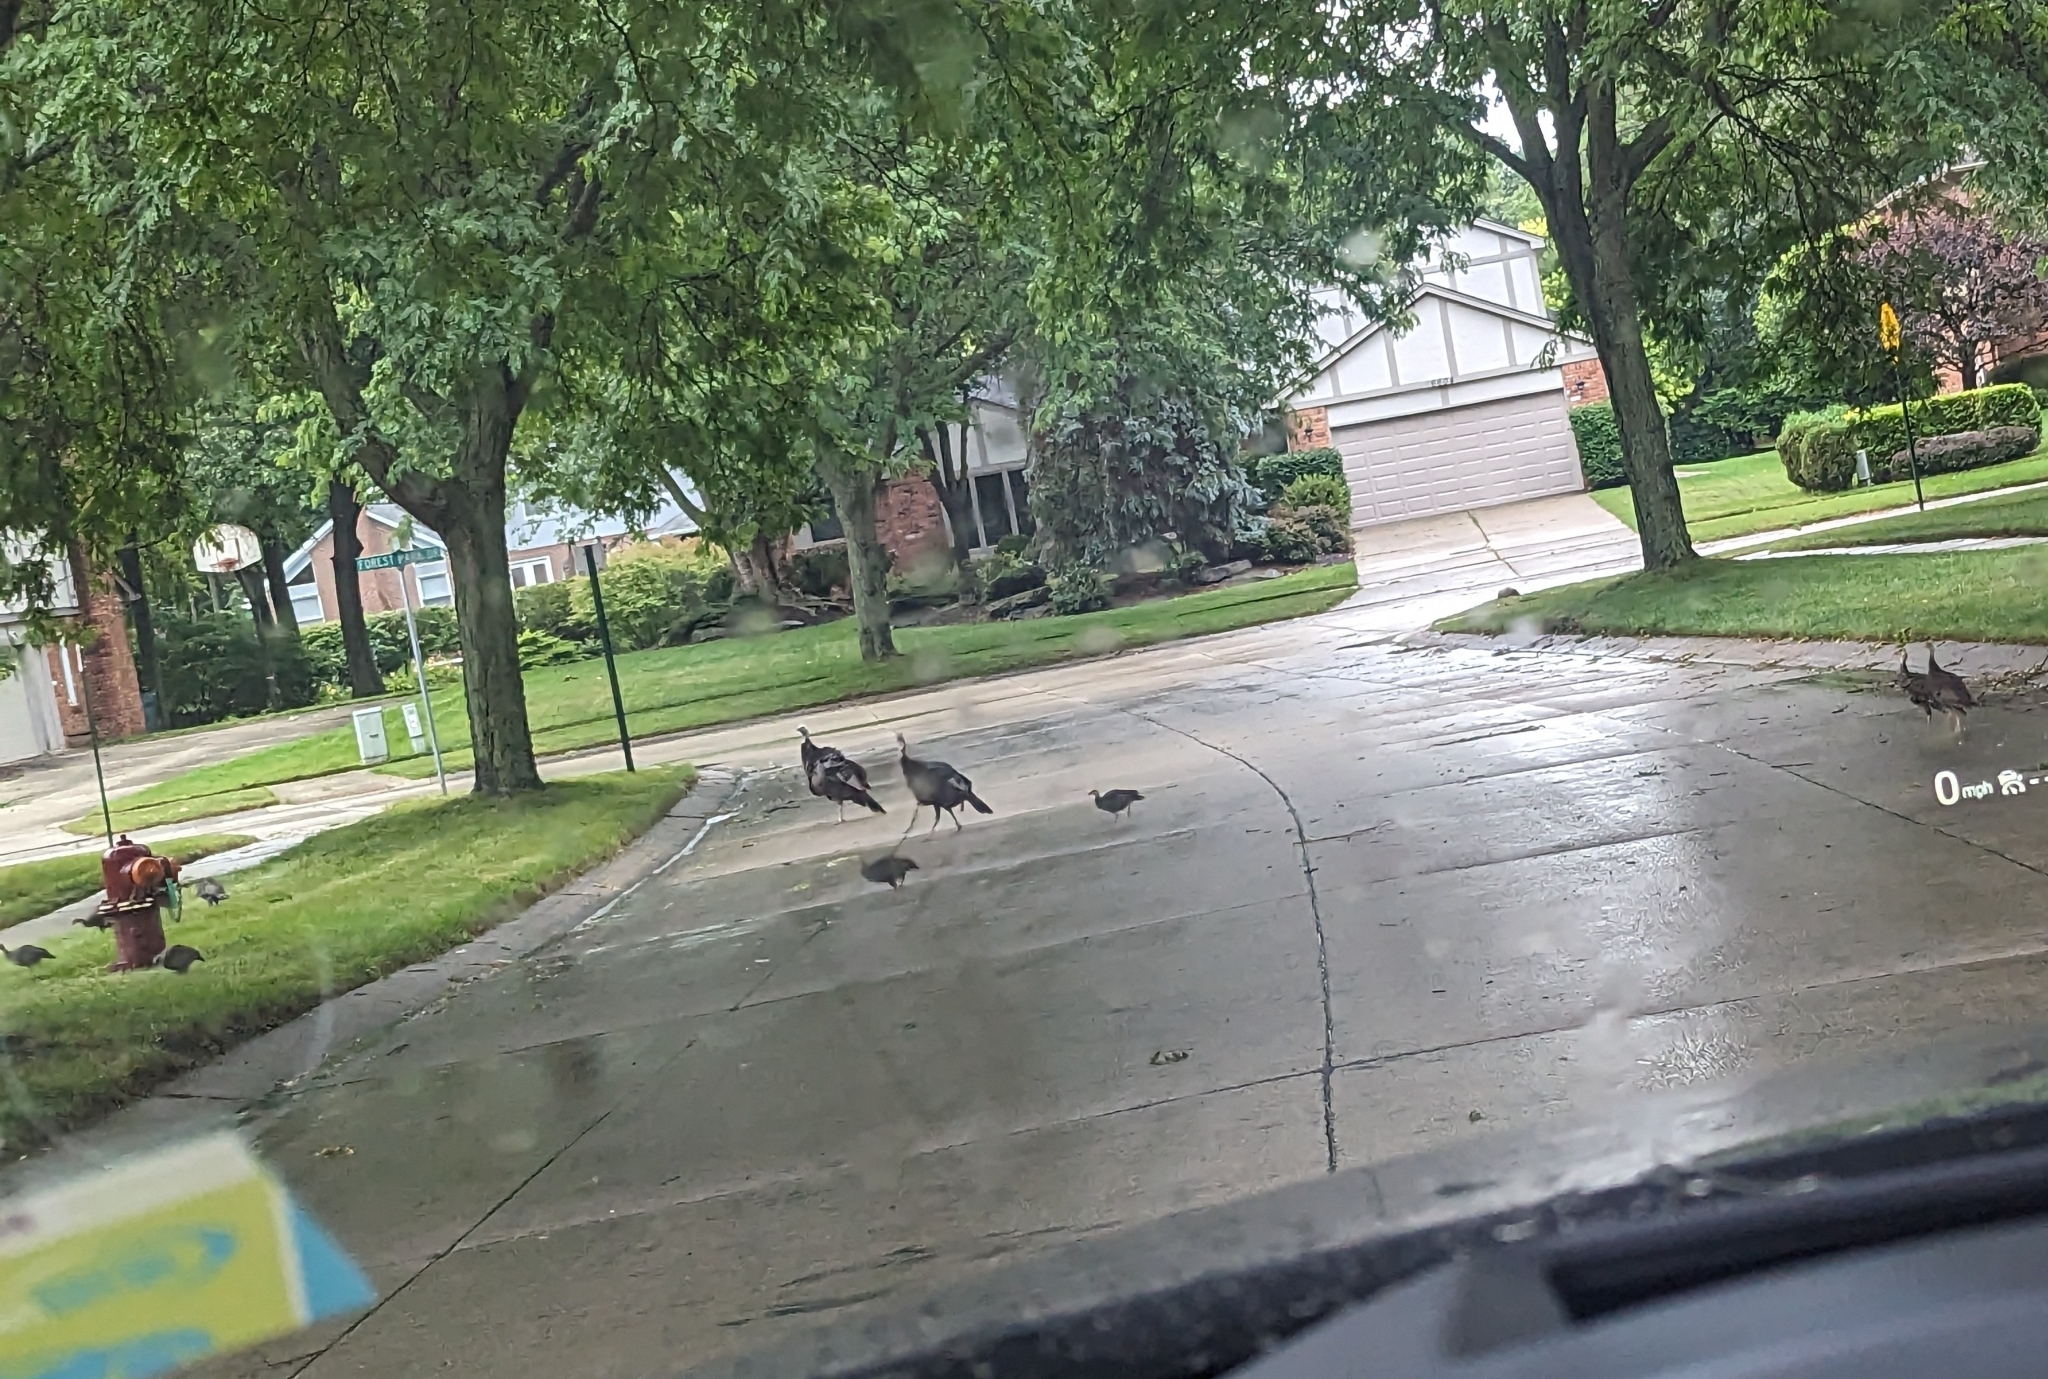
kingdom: Animalia
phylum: Chordata
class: Aves
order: Galliformes
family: Phasianidae
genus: Meleagris
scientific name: Meleagris gallopavo
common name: Wild turkey
